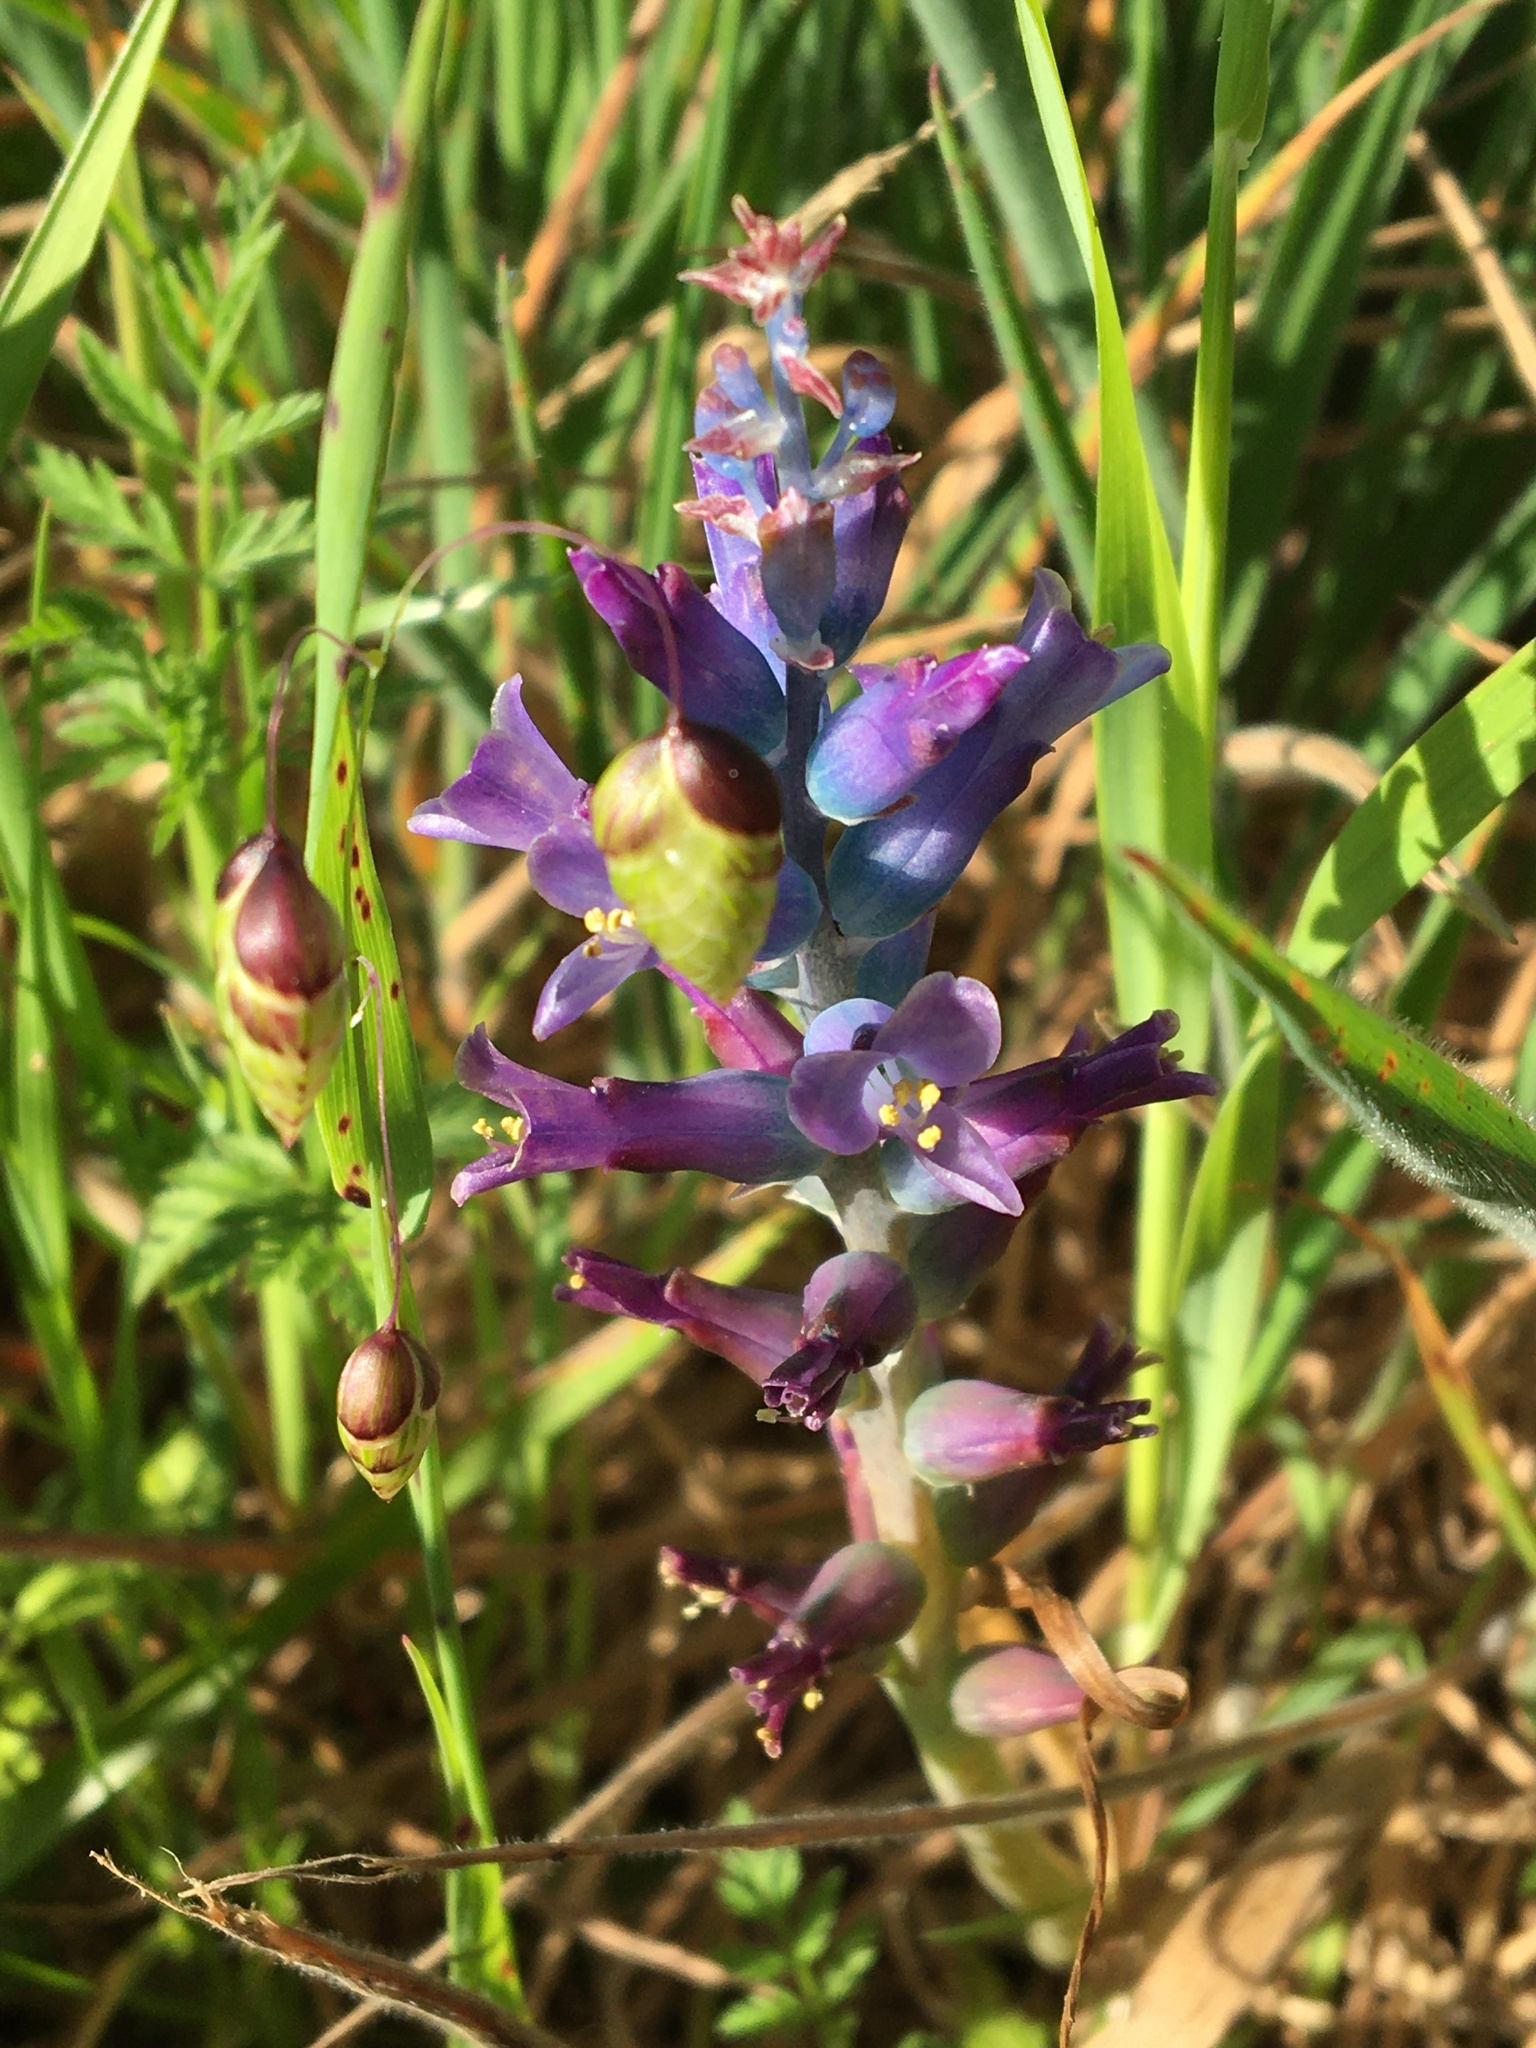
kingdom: Plantae
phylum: Tracheophyta
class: Liliopsida
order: Asparagales
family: Asparagaceae
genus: Lachenalia
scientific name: Lachenalia glaucina
